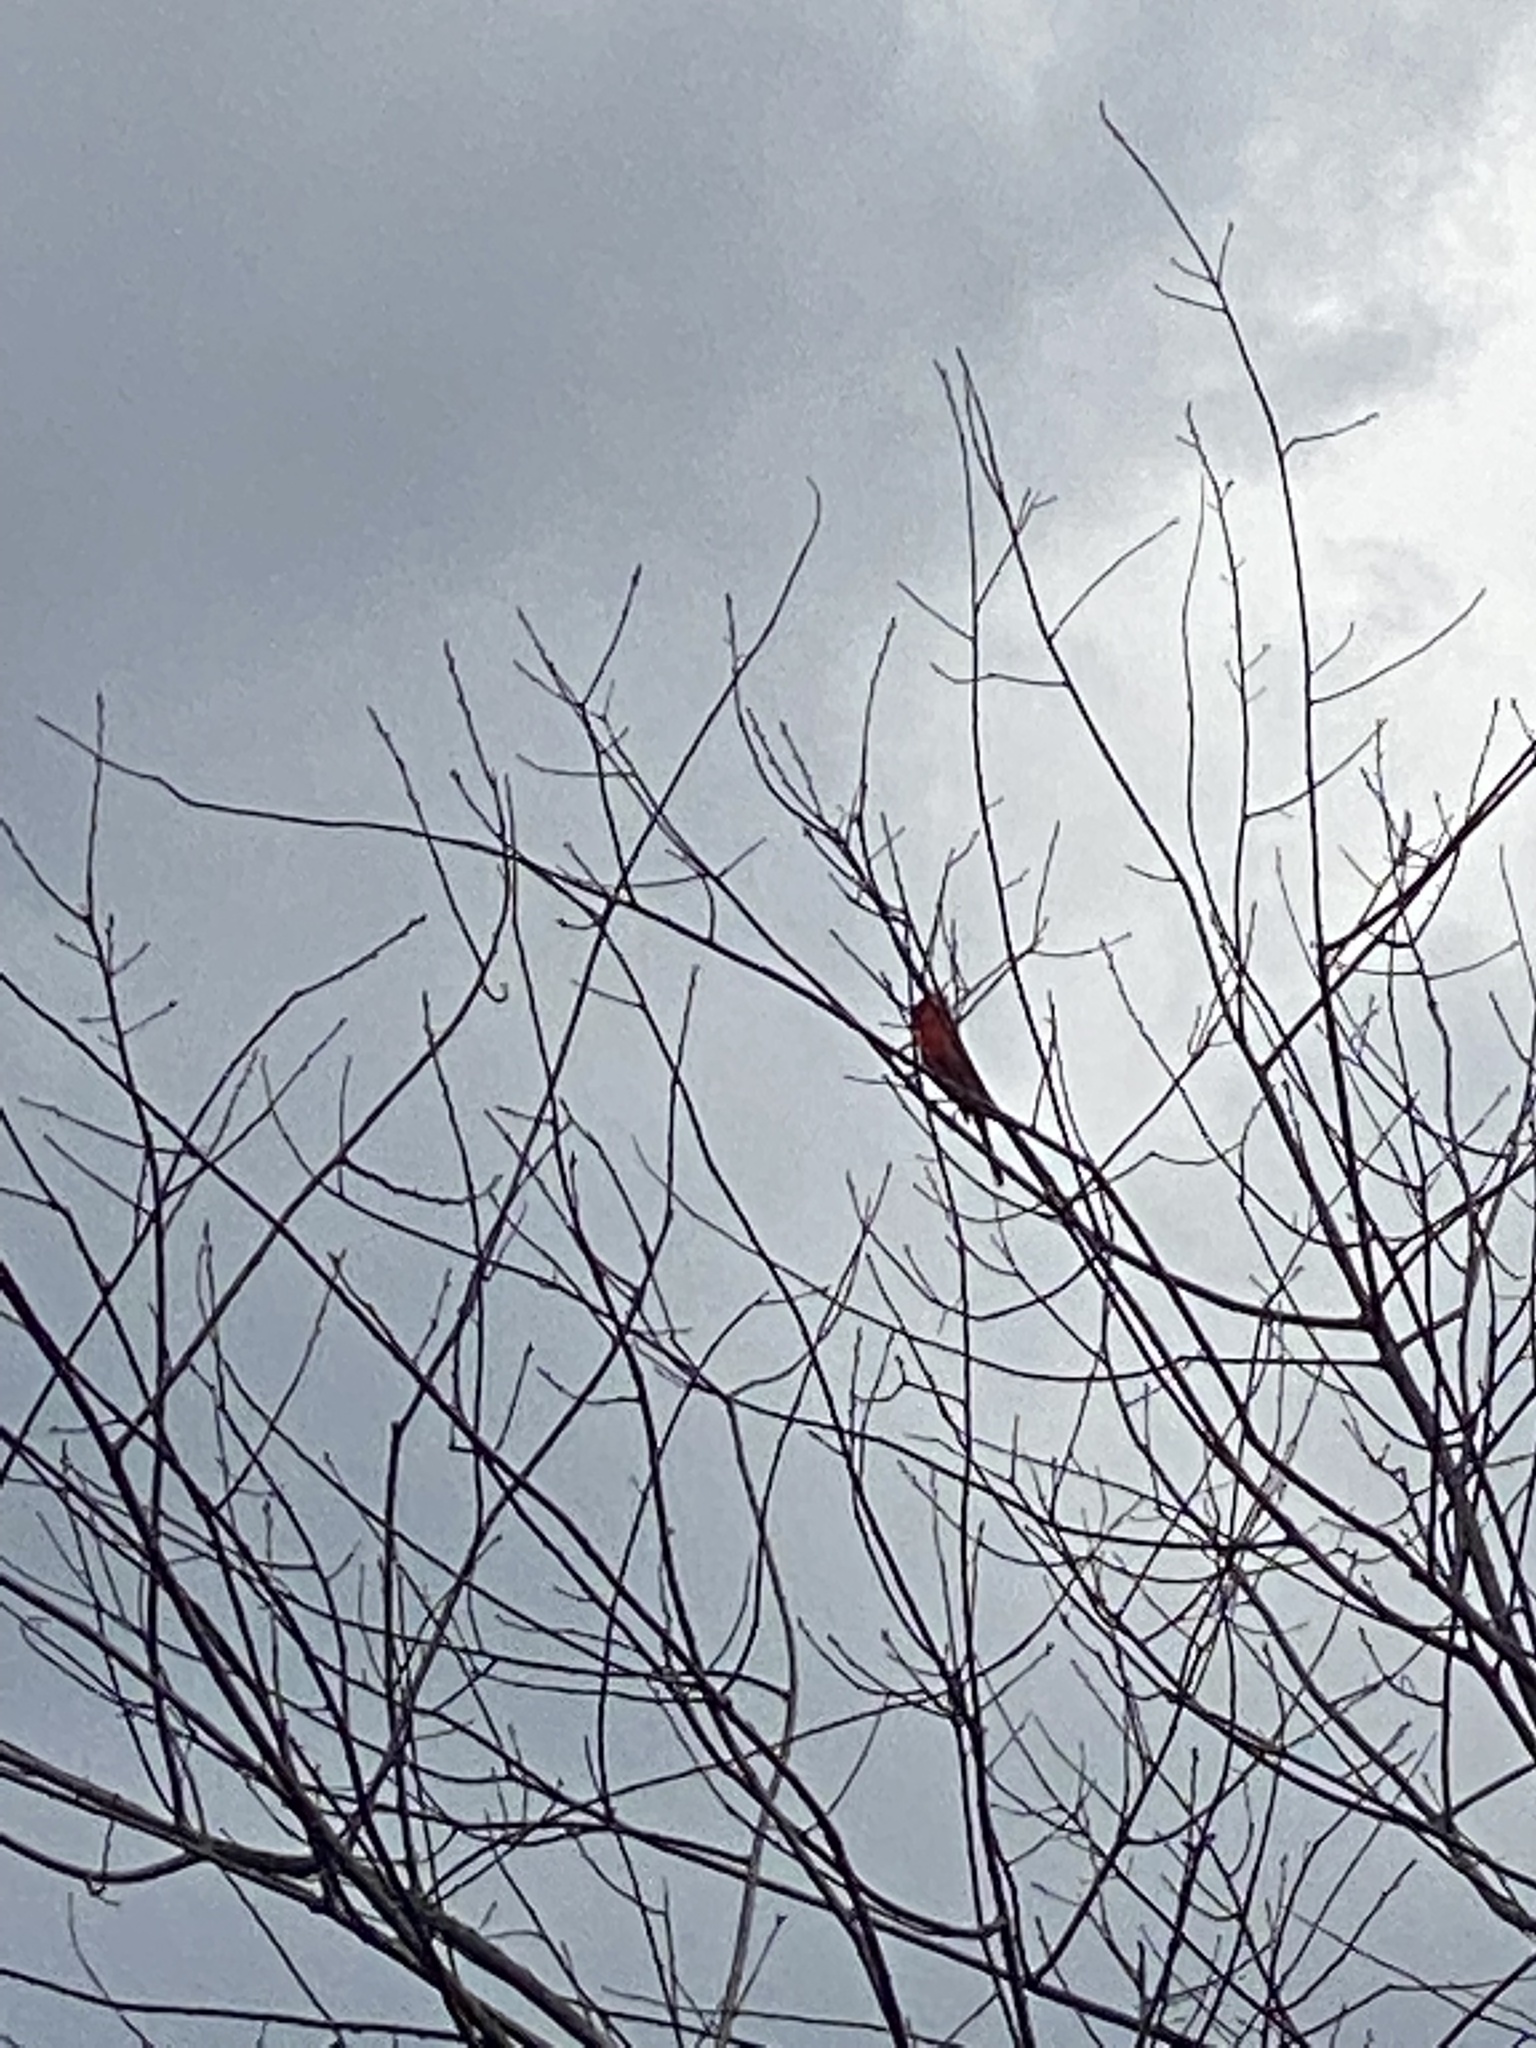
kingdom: Animalia
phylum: Chordata
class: Aves
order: Passeriformes
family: Cardinalidae
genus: Cardinalis
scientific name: Cardinalis cardinalis
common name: Northern cardinal
